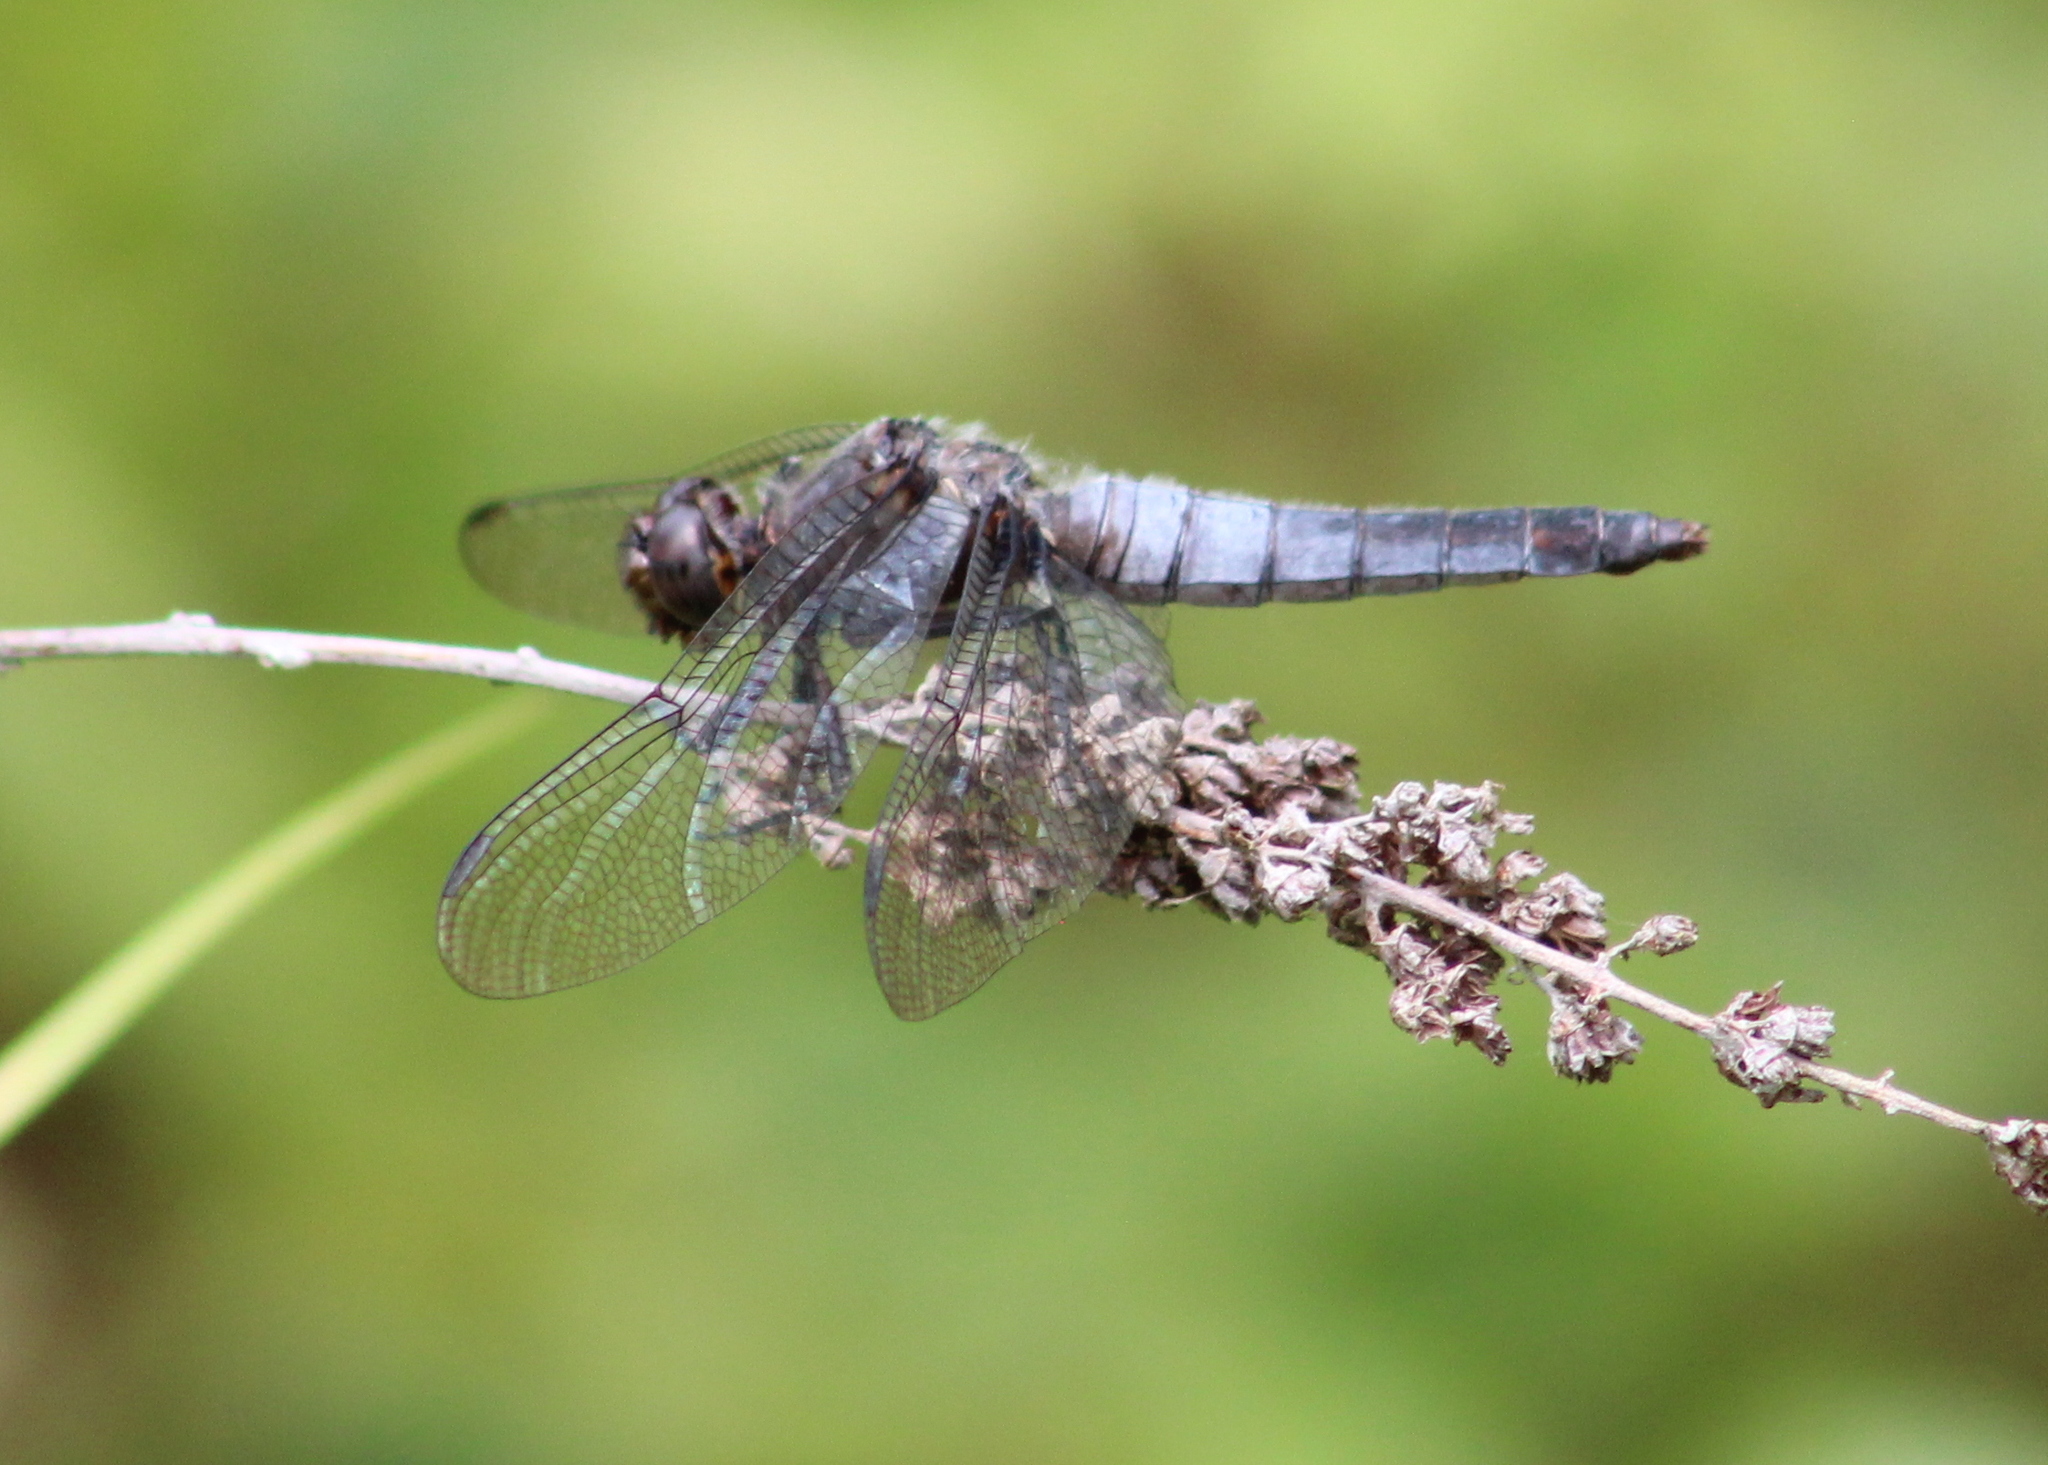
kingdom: Animalia
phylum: Arthropoda
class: Insecta
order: Odonata
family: Libellulidae
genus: Ladona
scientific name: Ladona julia
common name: Chalk-fronted corporal
